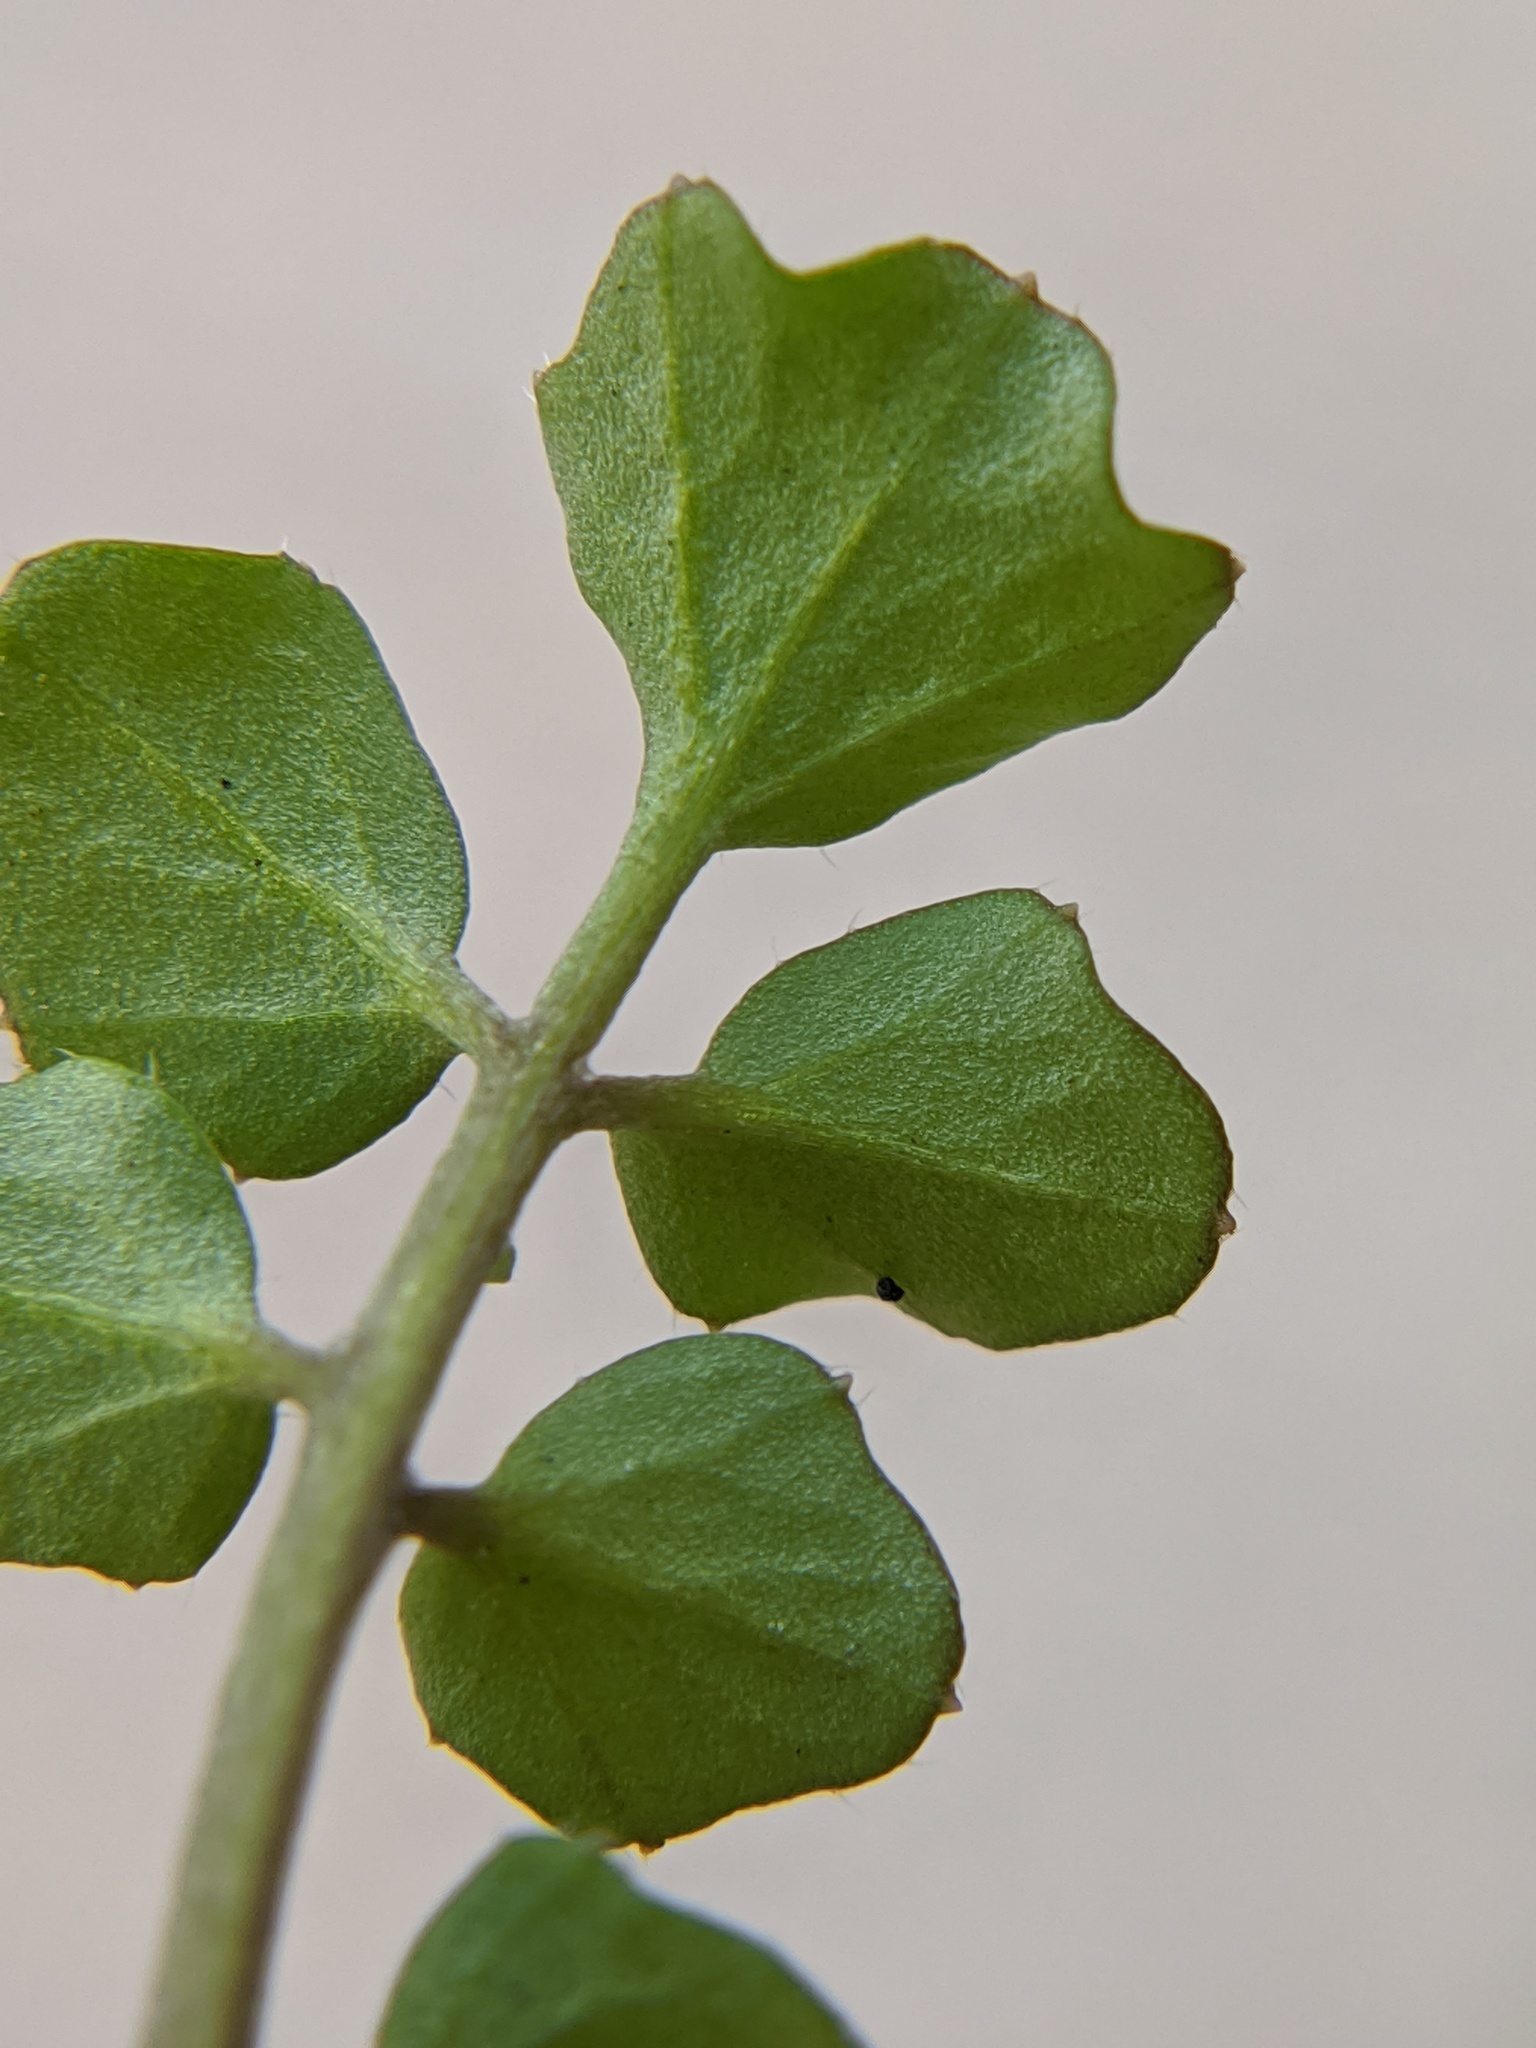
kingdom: Plantae
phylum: Tracheophyta
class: Magnoliopsida
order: Brassicales
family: Brassicaceae
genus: Cardamine
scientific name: Cardamine hirsuta
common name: Hairy bittercress
